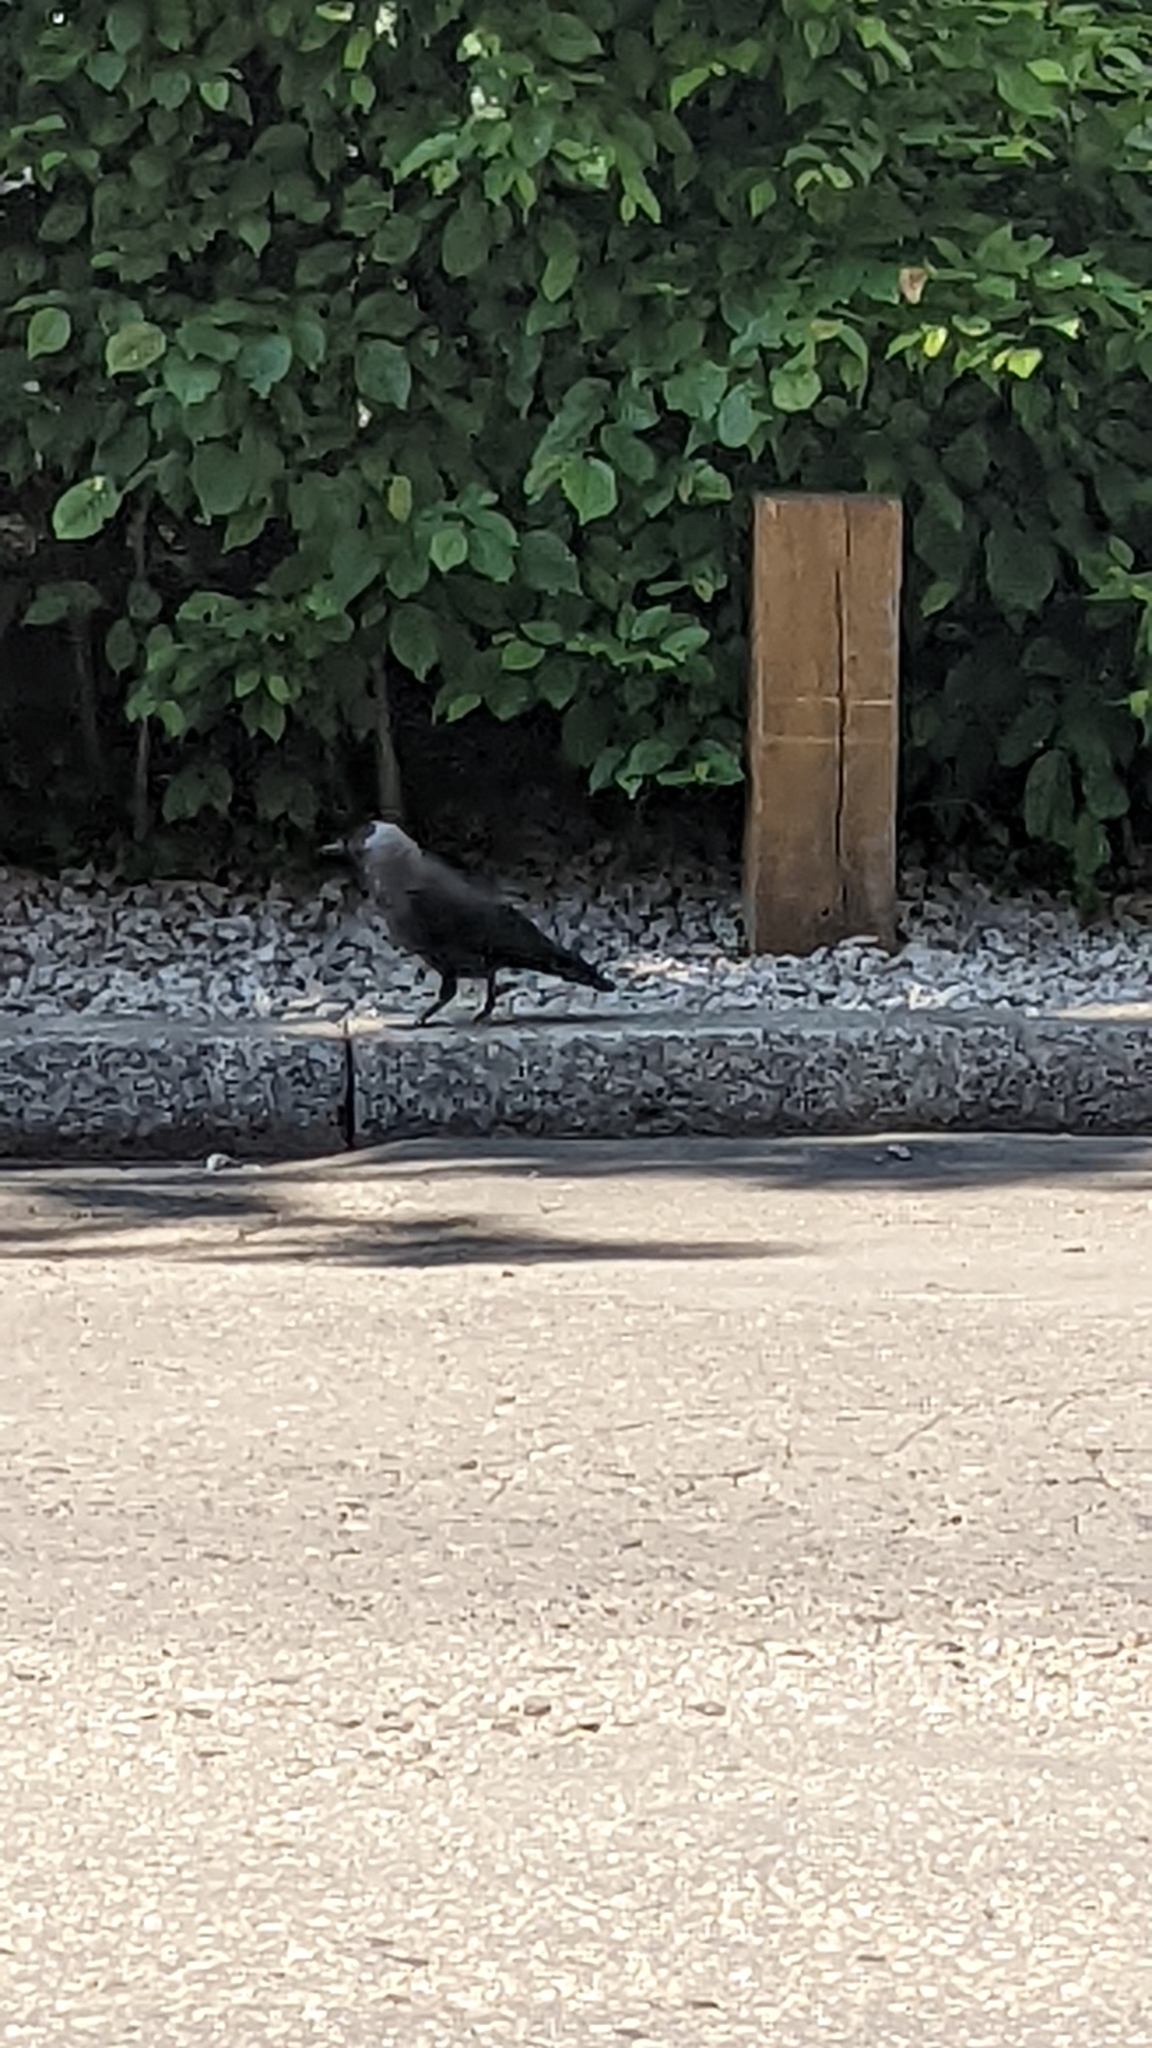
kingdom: Animalia
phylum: Chordata
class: Aves
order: Passeriformes
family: Corvidae
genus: Coloeus
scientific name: Coloeus monedula
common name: Western jackdaw
